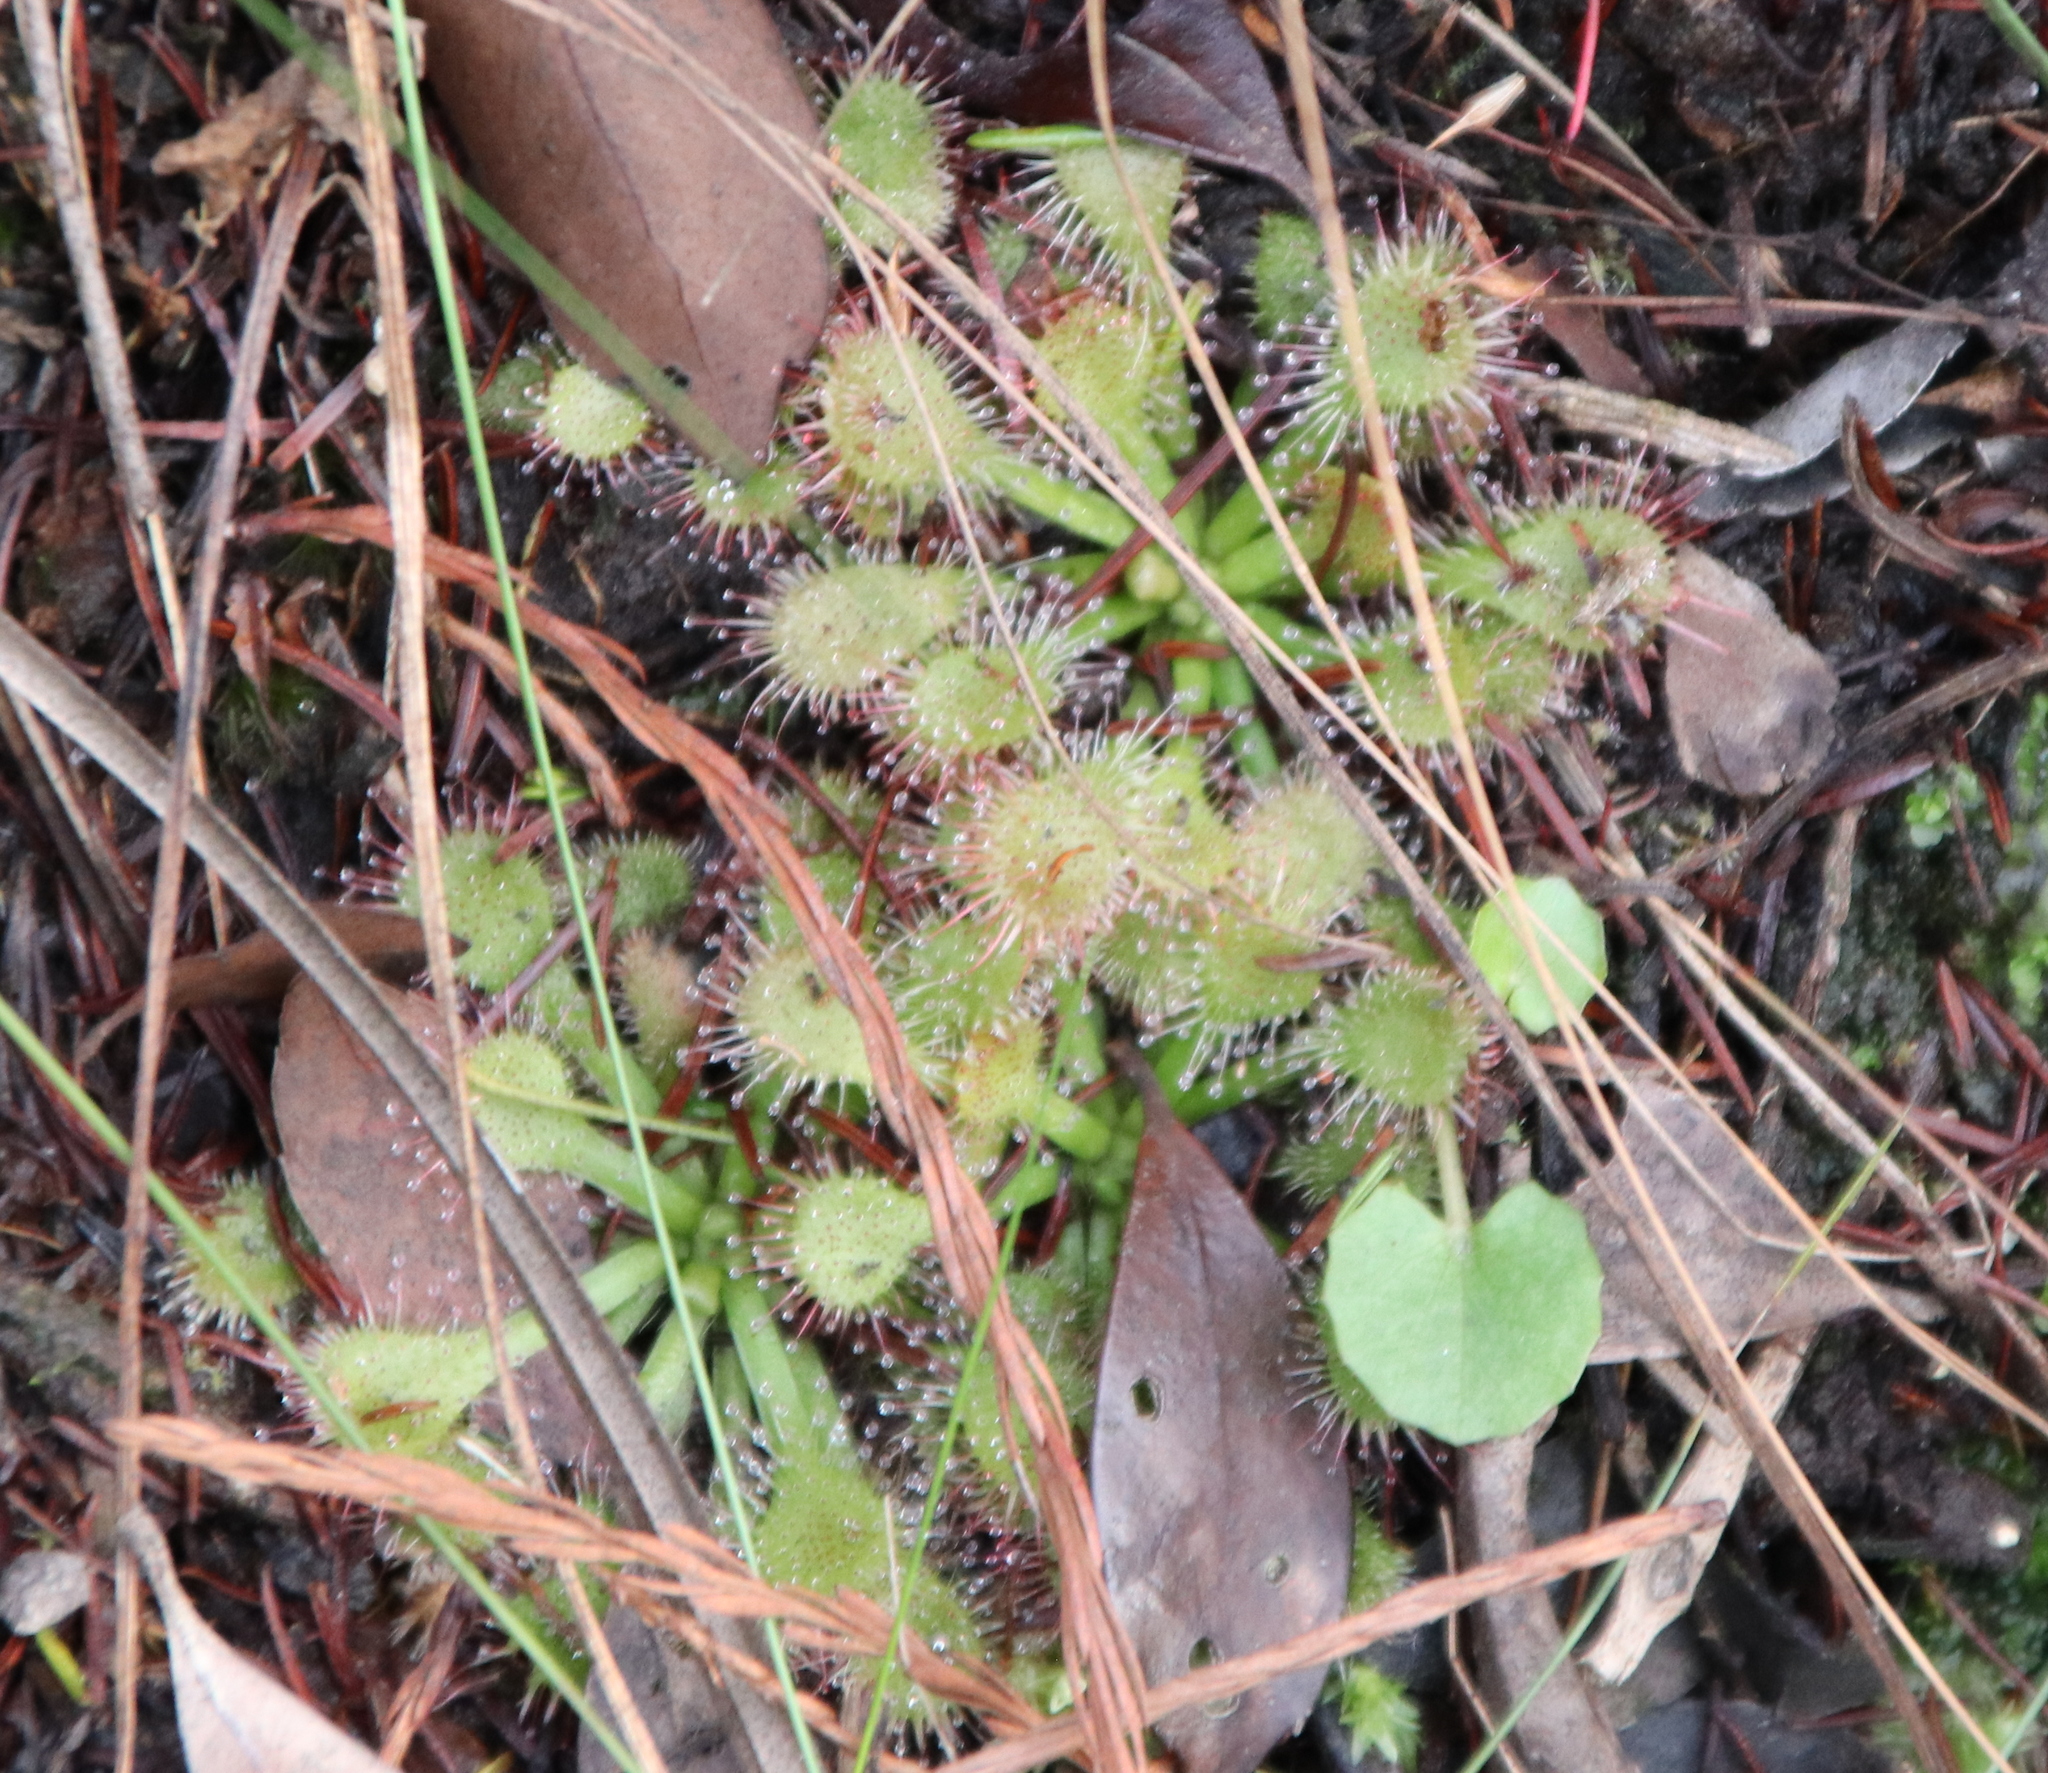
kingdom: Plantae
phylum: Tracheophyta
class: Magnoliopsida
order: Caryophyllales
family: Droseraceae
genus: Drosera
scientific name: Drosera capillaris
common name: Pink sundew
